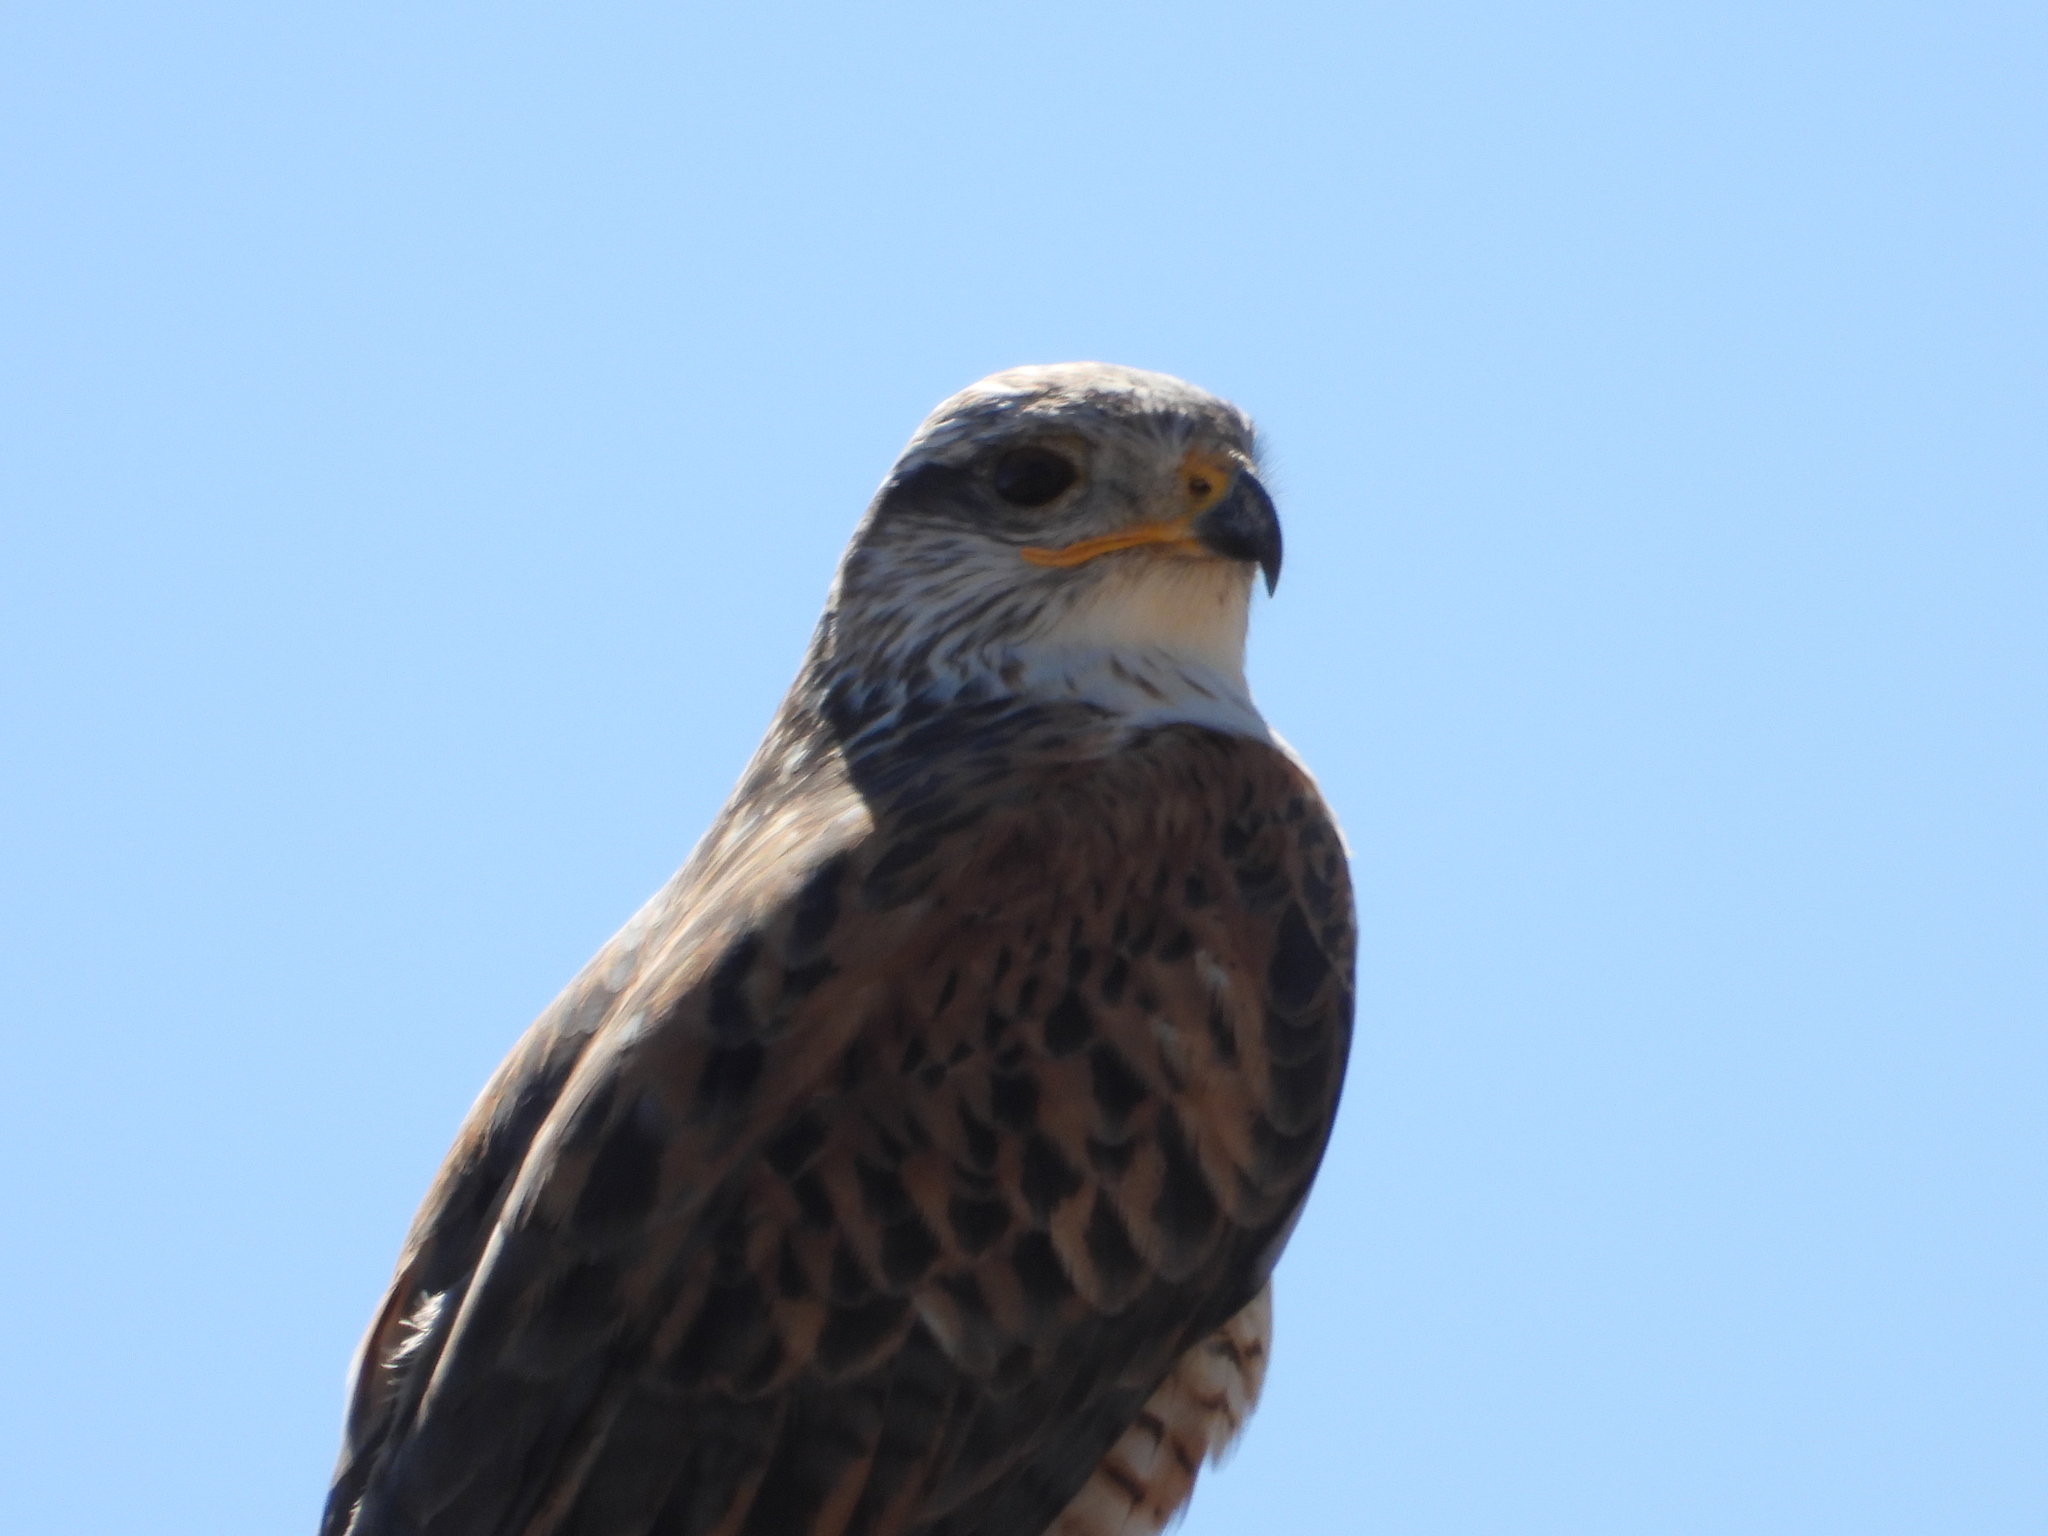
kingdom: Animalia
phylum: Chordata
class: Aves
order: Accipitriformes
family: Accipitridae
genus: Buteo
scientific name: Buteo regalis
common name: Ferruginous hawk
